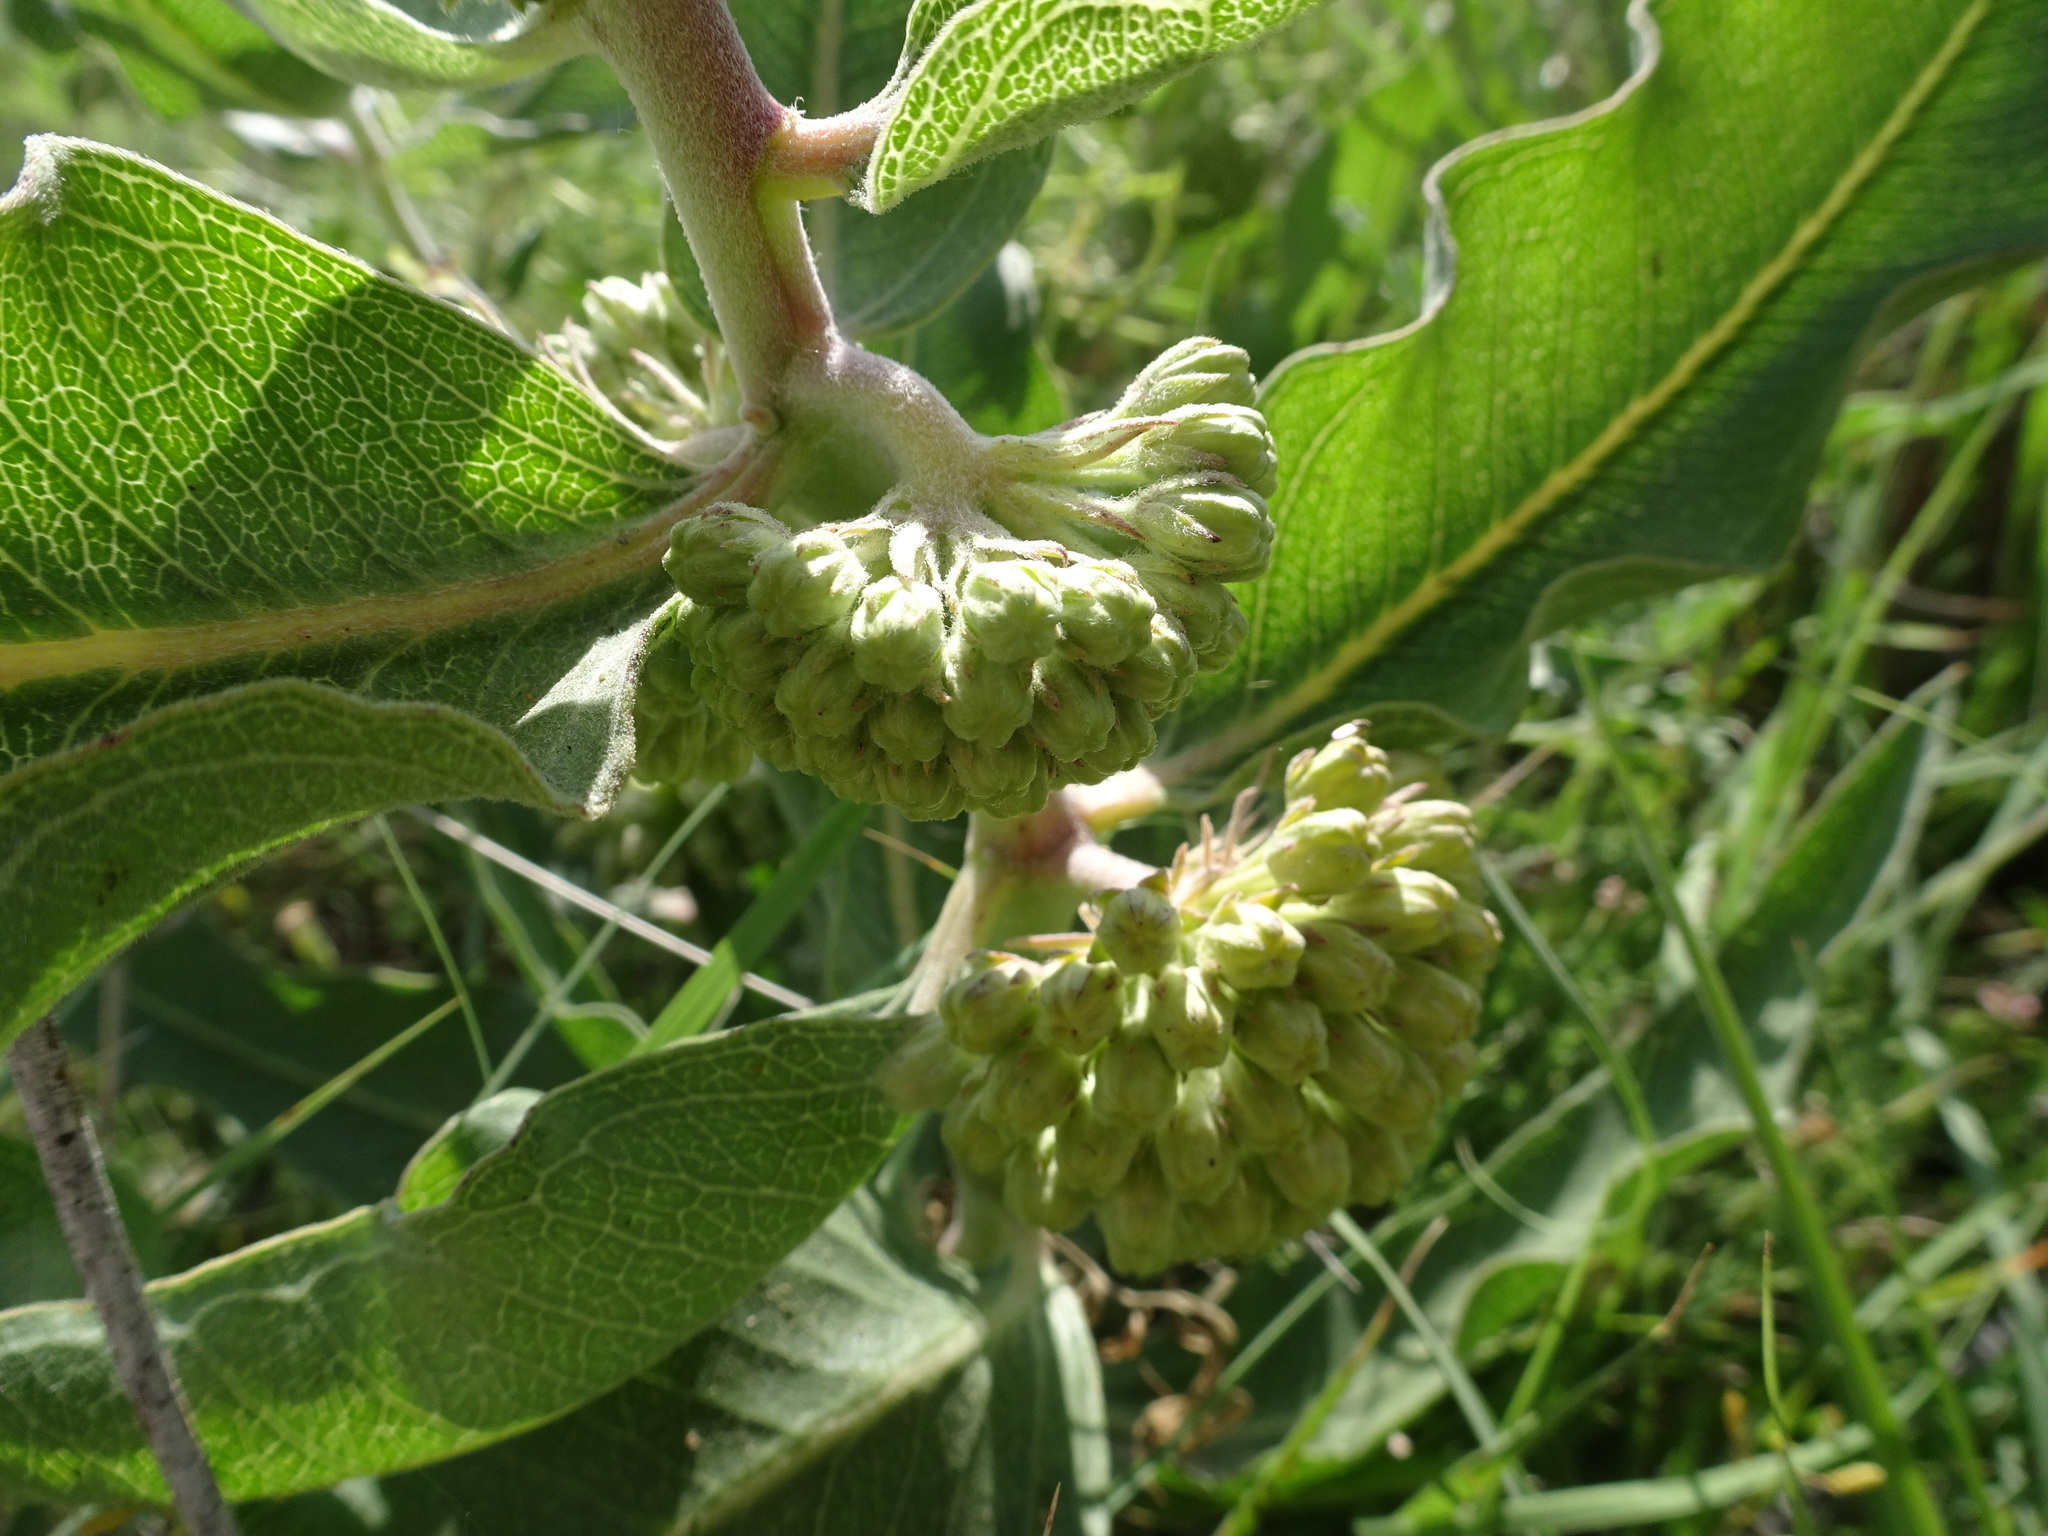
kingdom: Plantae
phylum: Tracheophyta
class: Magnoliopsida
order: Gentianales
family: Apocynaceae
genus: Asclepias
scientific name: Asclepias viridiflora
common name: Green comet milkweed
